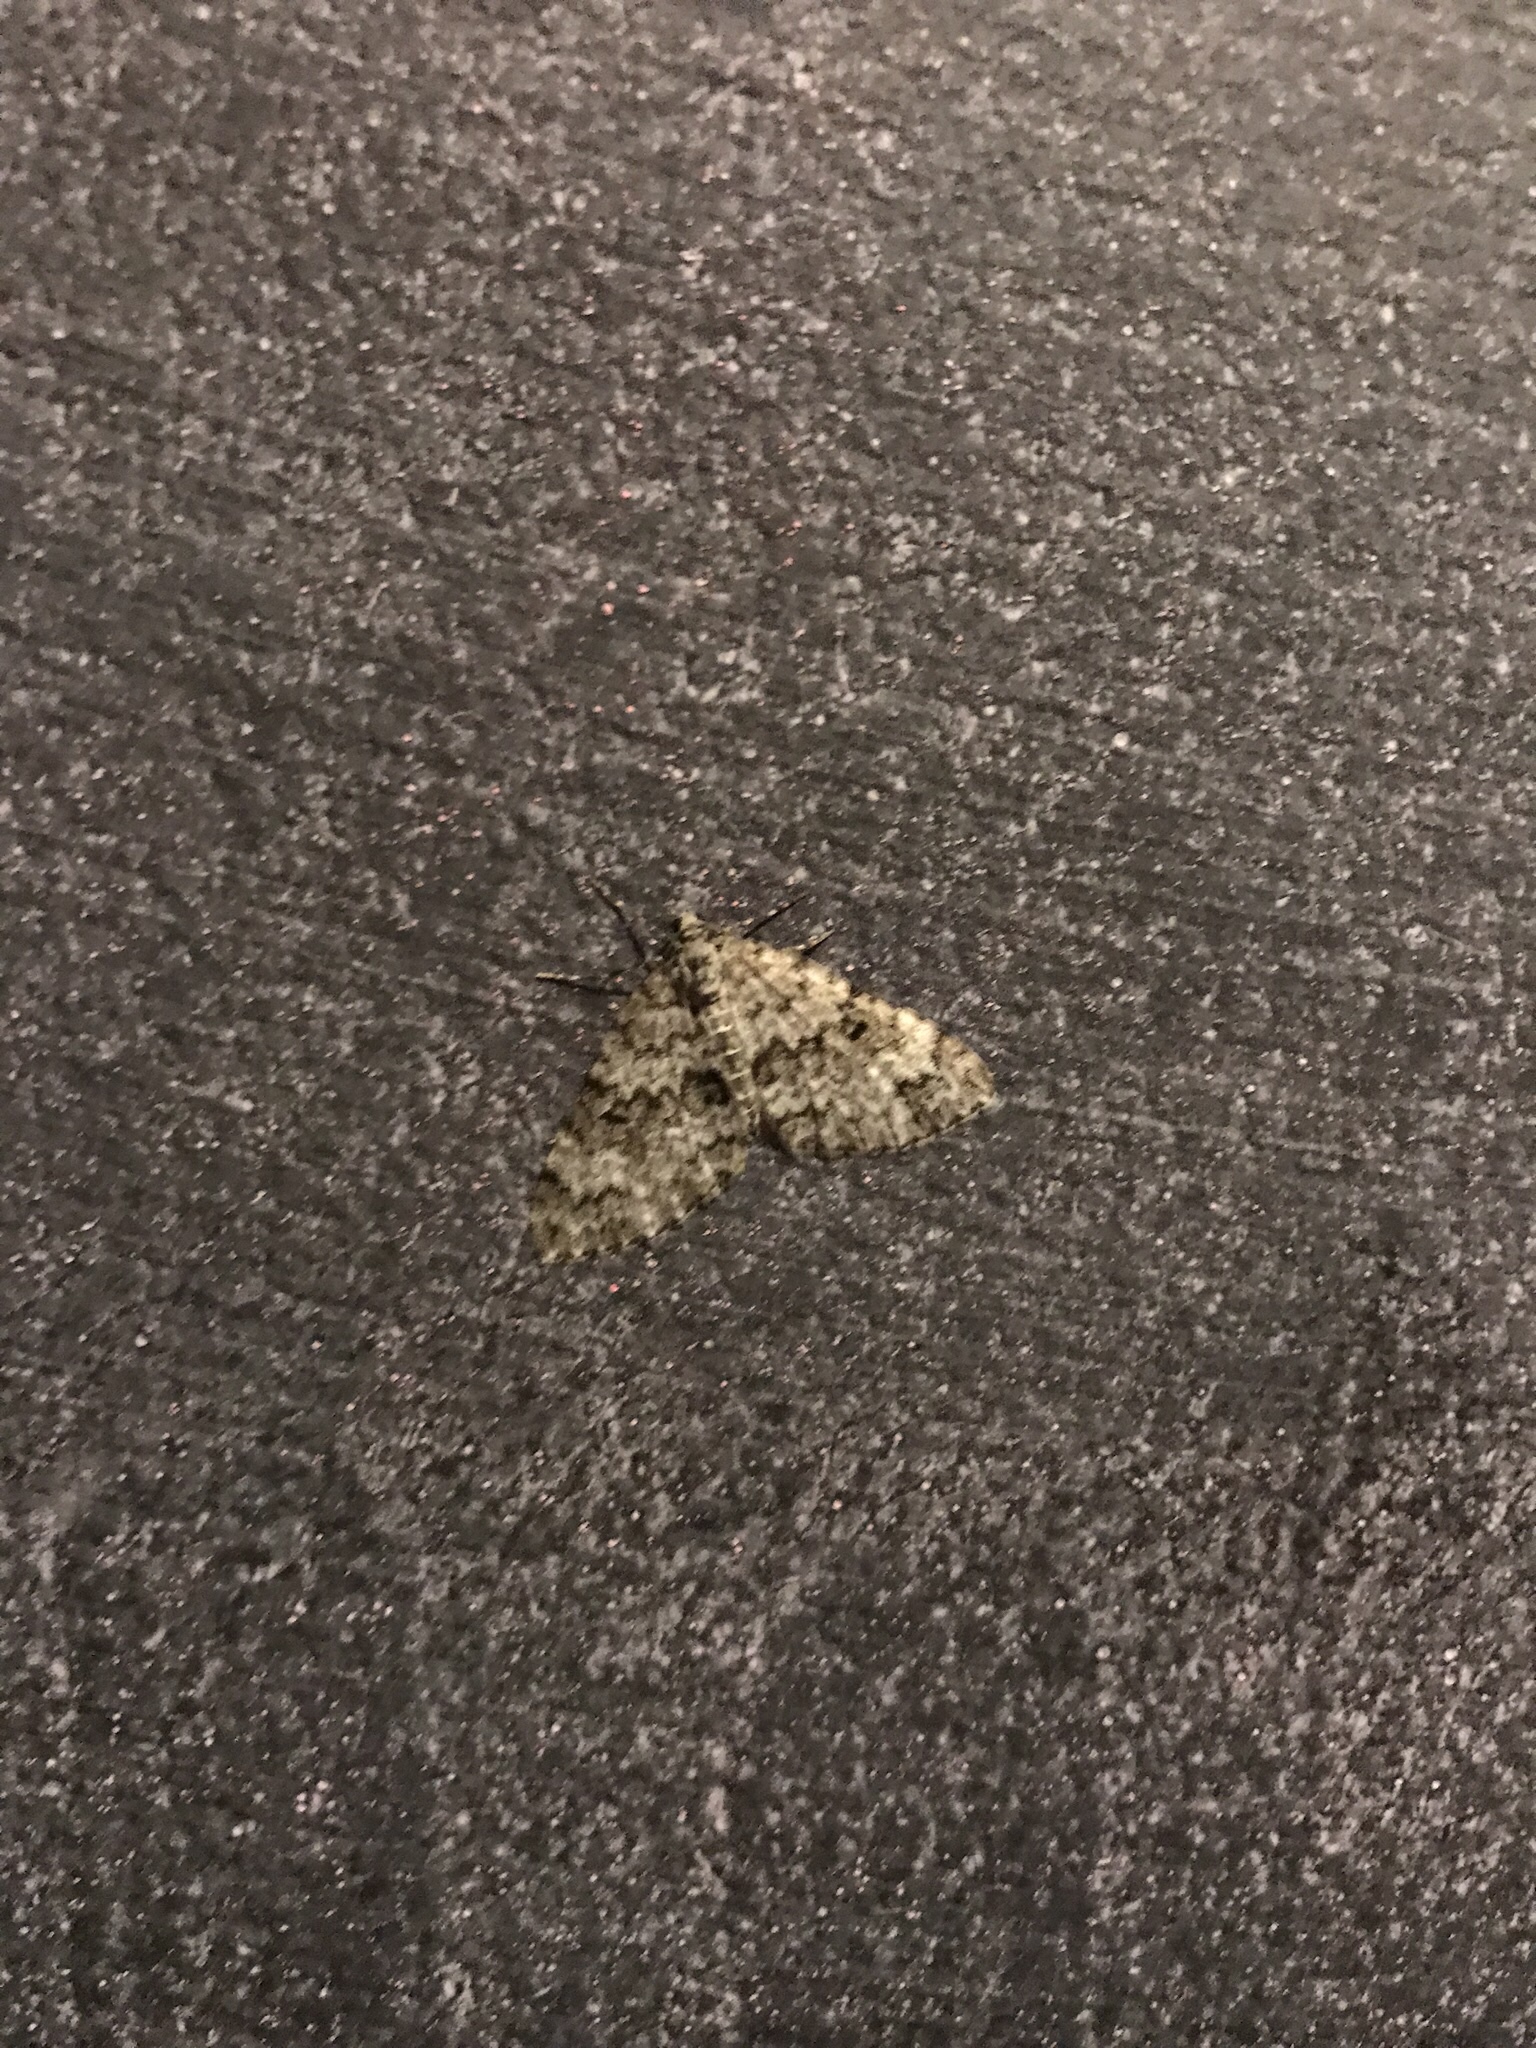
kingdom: Animalia
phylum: Arthropoda
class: Insecta
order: Lepidoptera
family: Geometridae
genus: Spargania
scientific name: Spargania magnoliata
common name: Double-banded carpet
